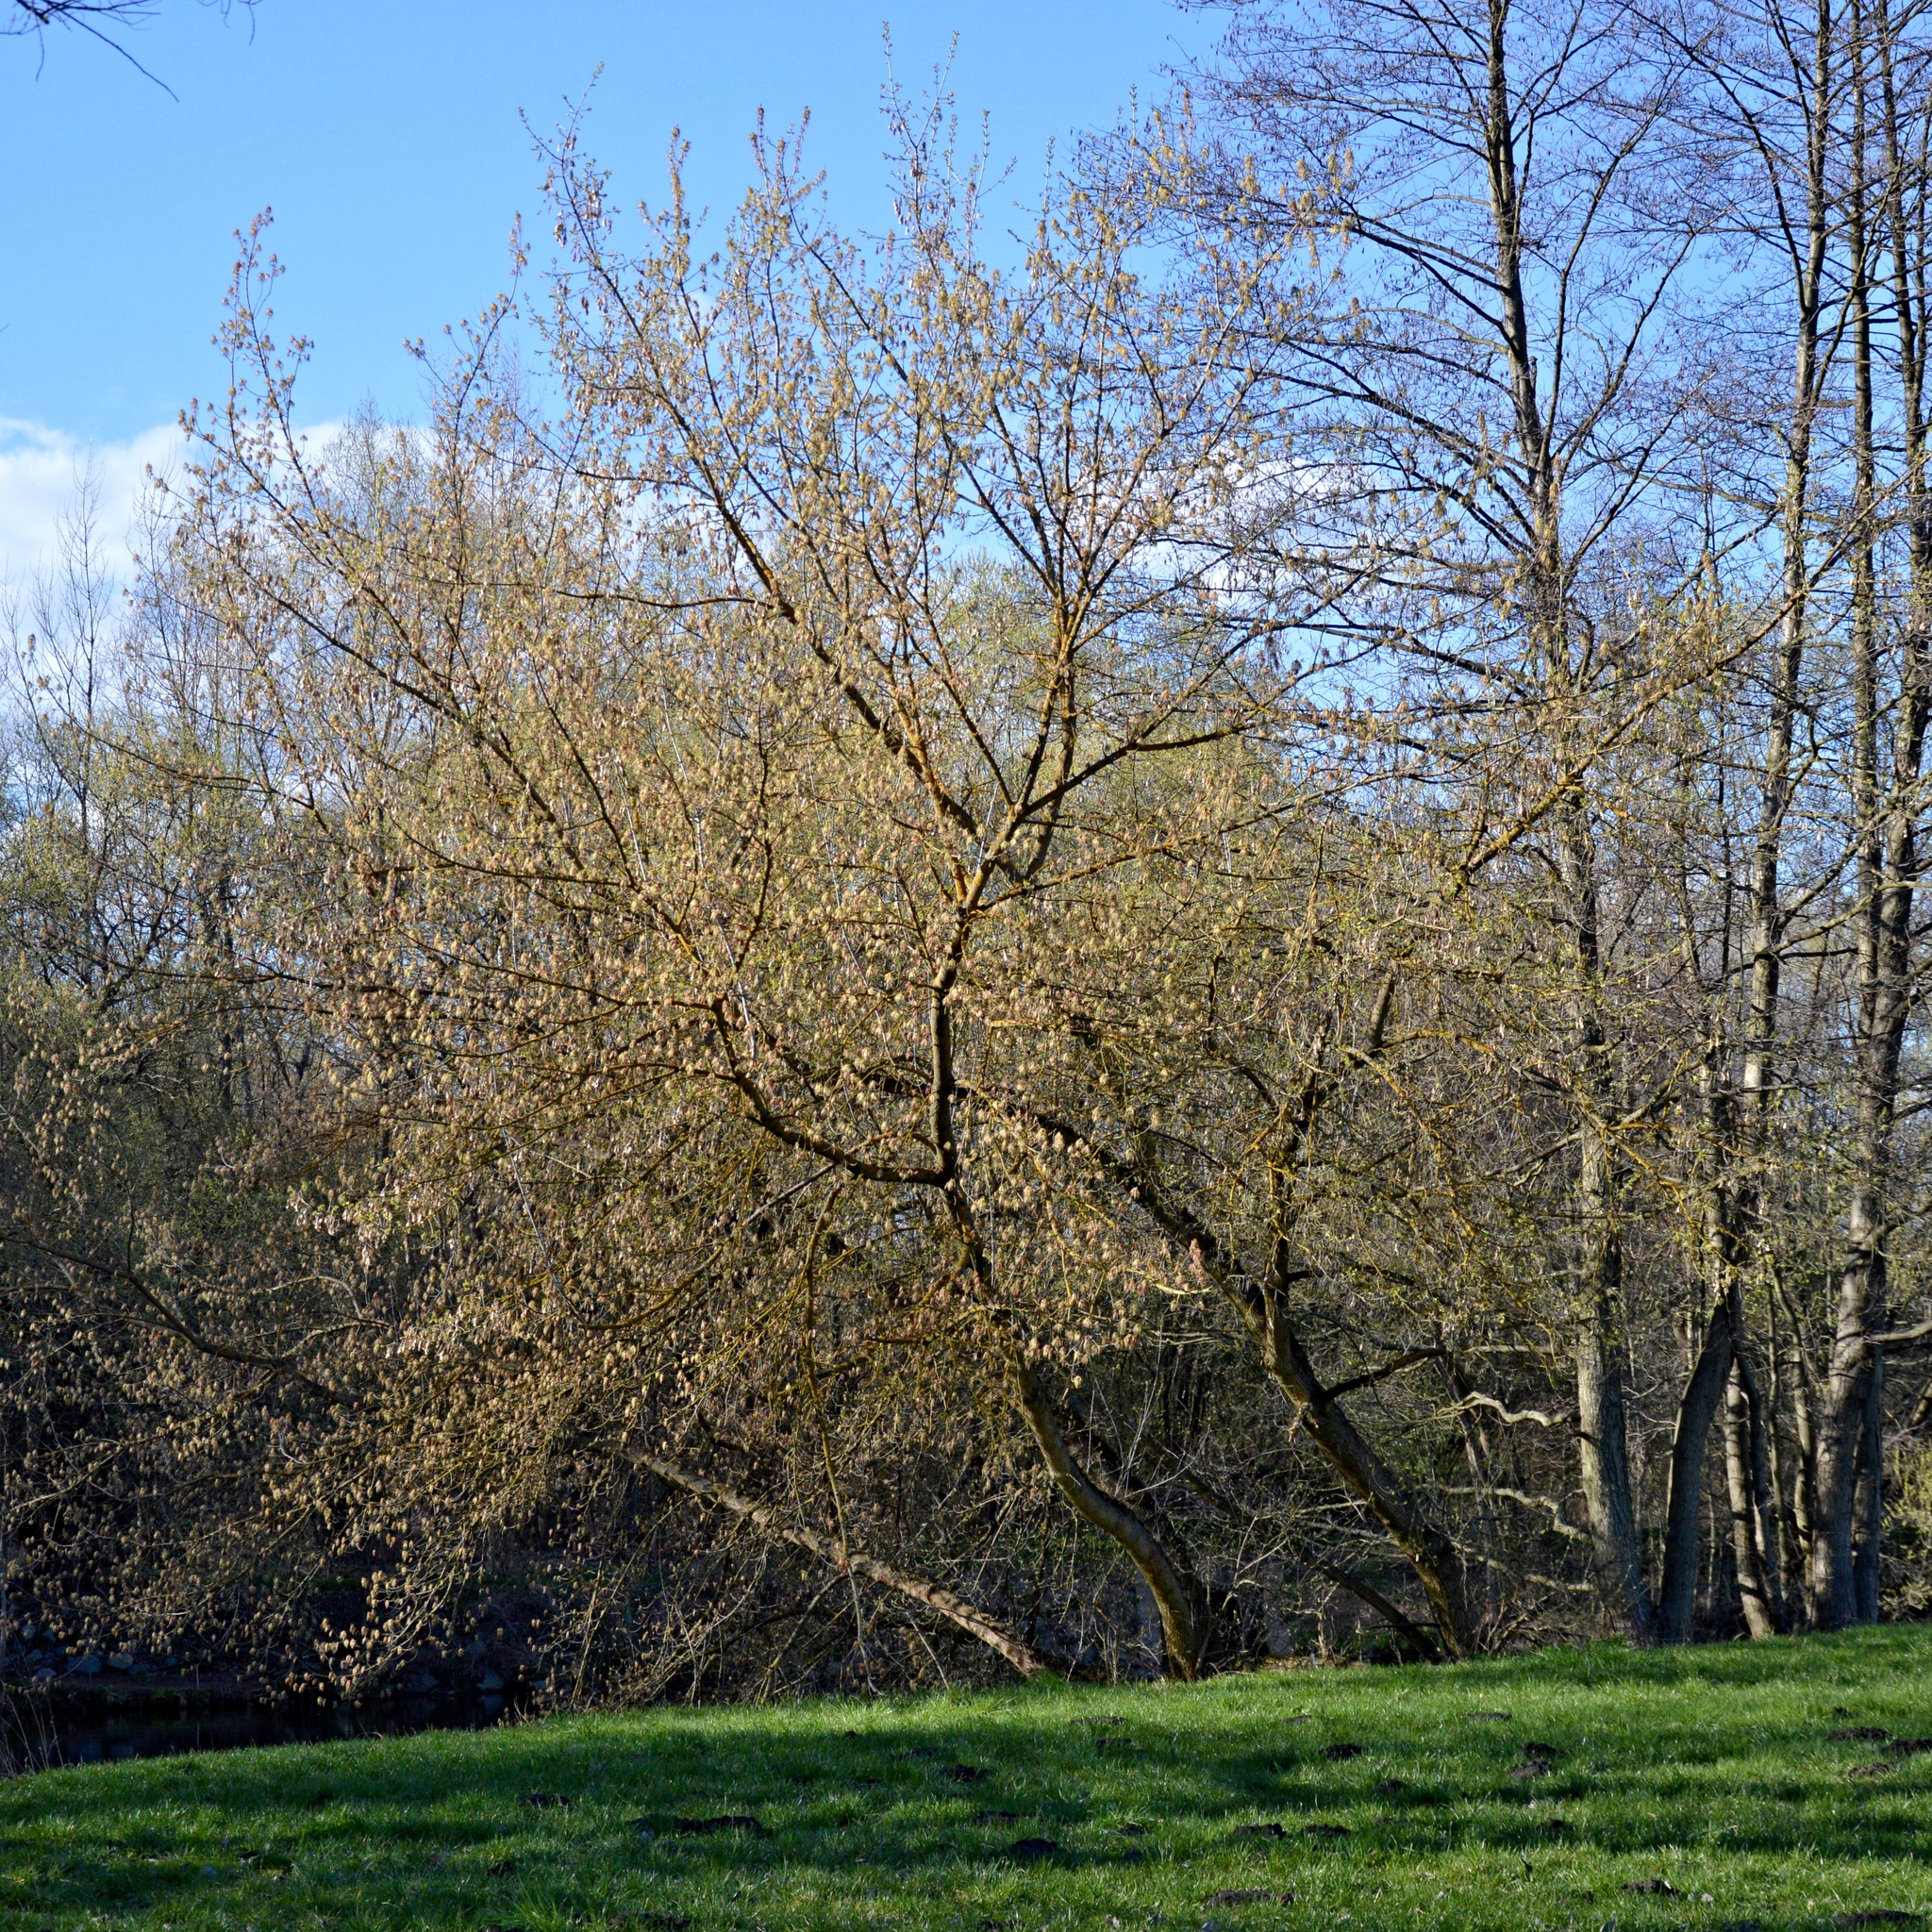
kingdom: Plantae
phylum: Tracheophyta
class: Magnoliopsida
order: Sapindales
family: Sapindaceae
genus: Acer
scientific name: Acer negundo
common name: Ashleaf maple
